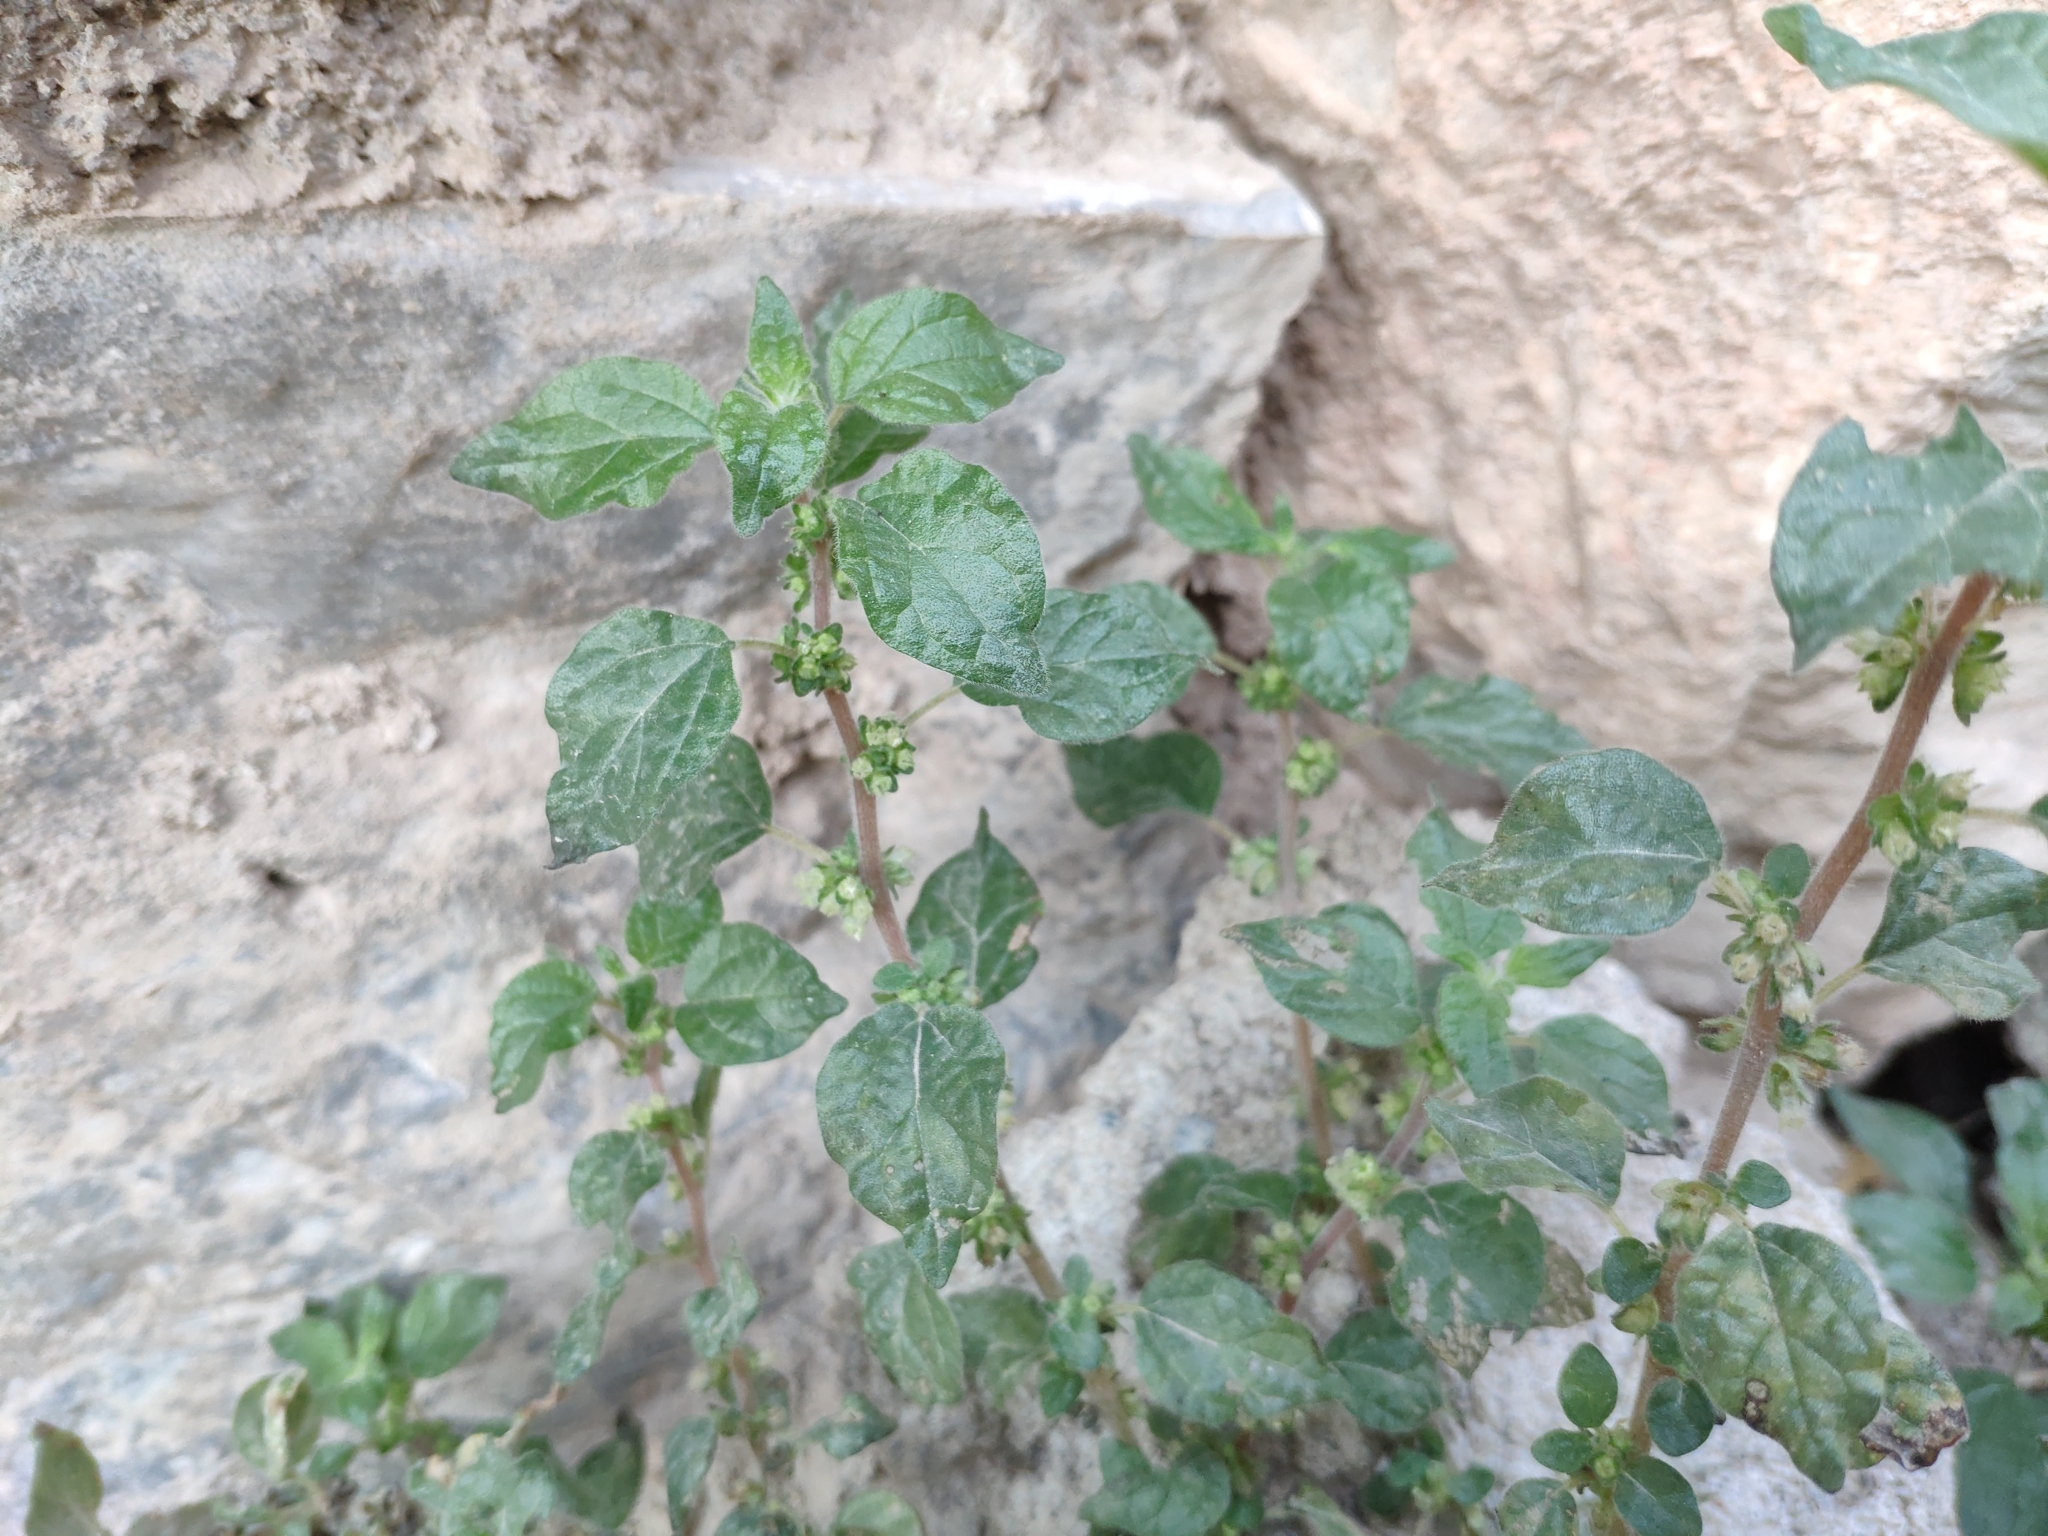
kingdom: Plantae
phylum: Tracheophyta
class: Magnoliopsida
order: Rosales
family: Urticaceae
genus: Parietaria
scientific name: Parietaria judaica
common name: Pellitory-of-the-wall
